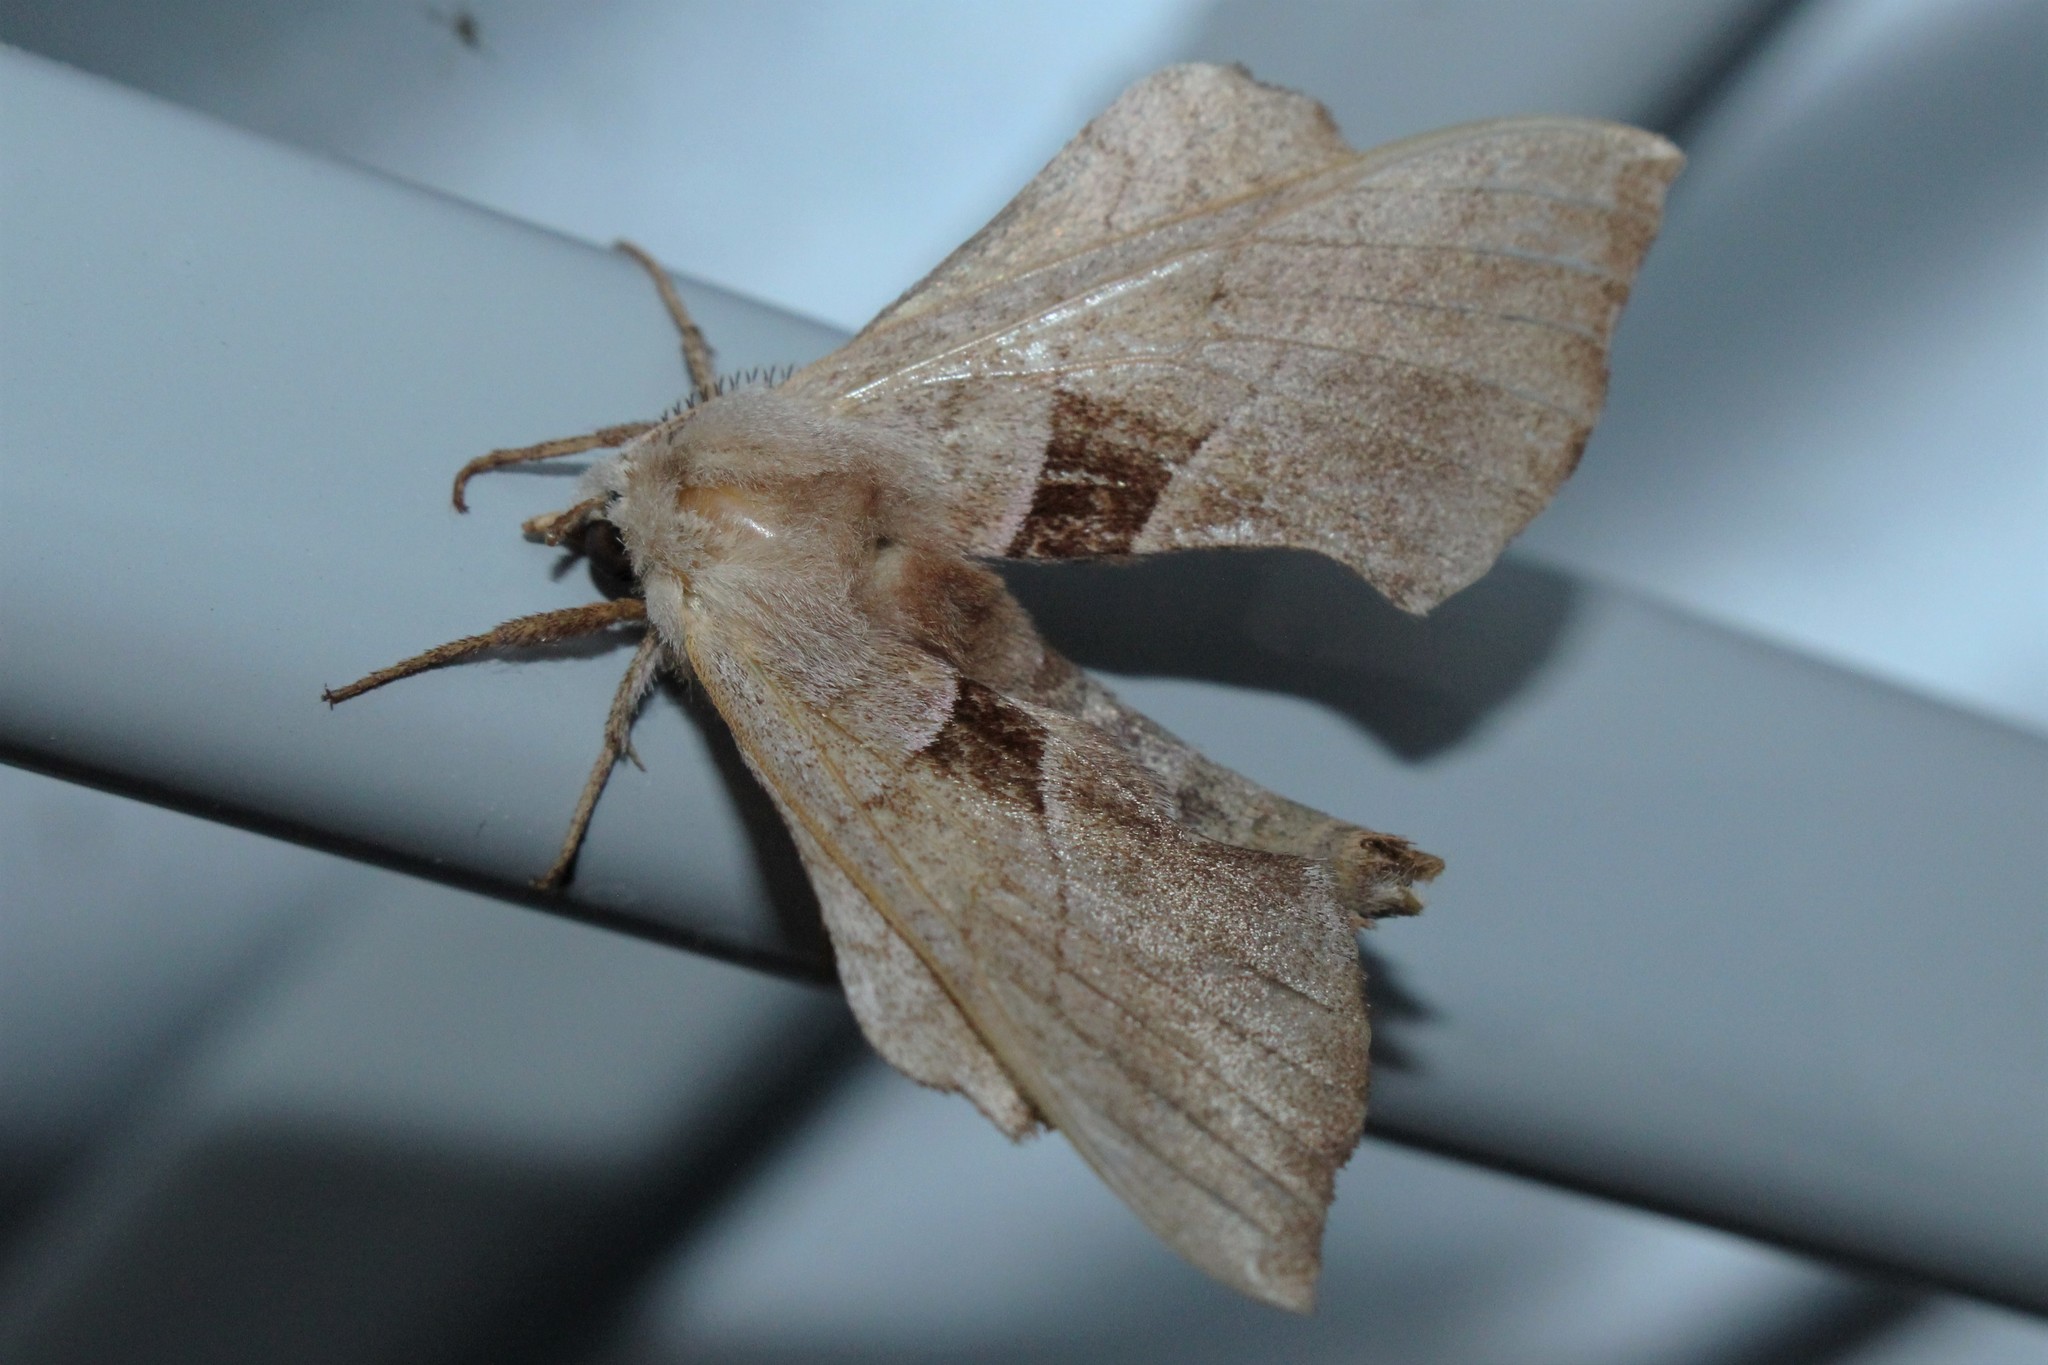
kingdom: Animalia
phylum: Arthropoda
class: Insecta
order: Lepidoptera
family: Sphingidae
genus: Amorpha
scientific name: Amorpha juglandis
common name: Walnut sphinx
